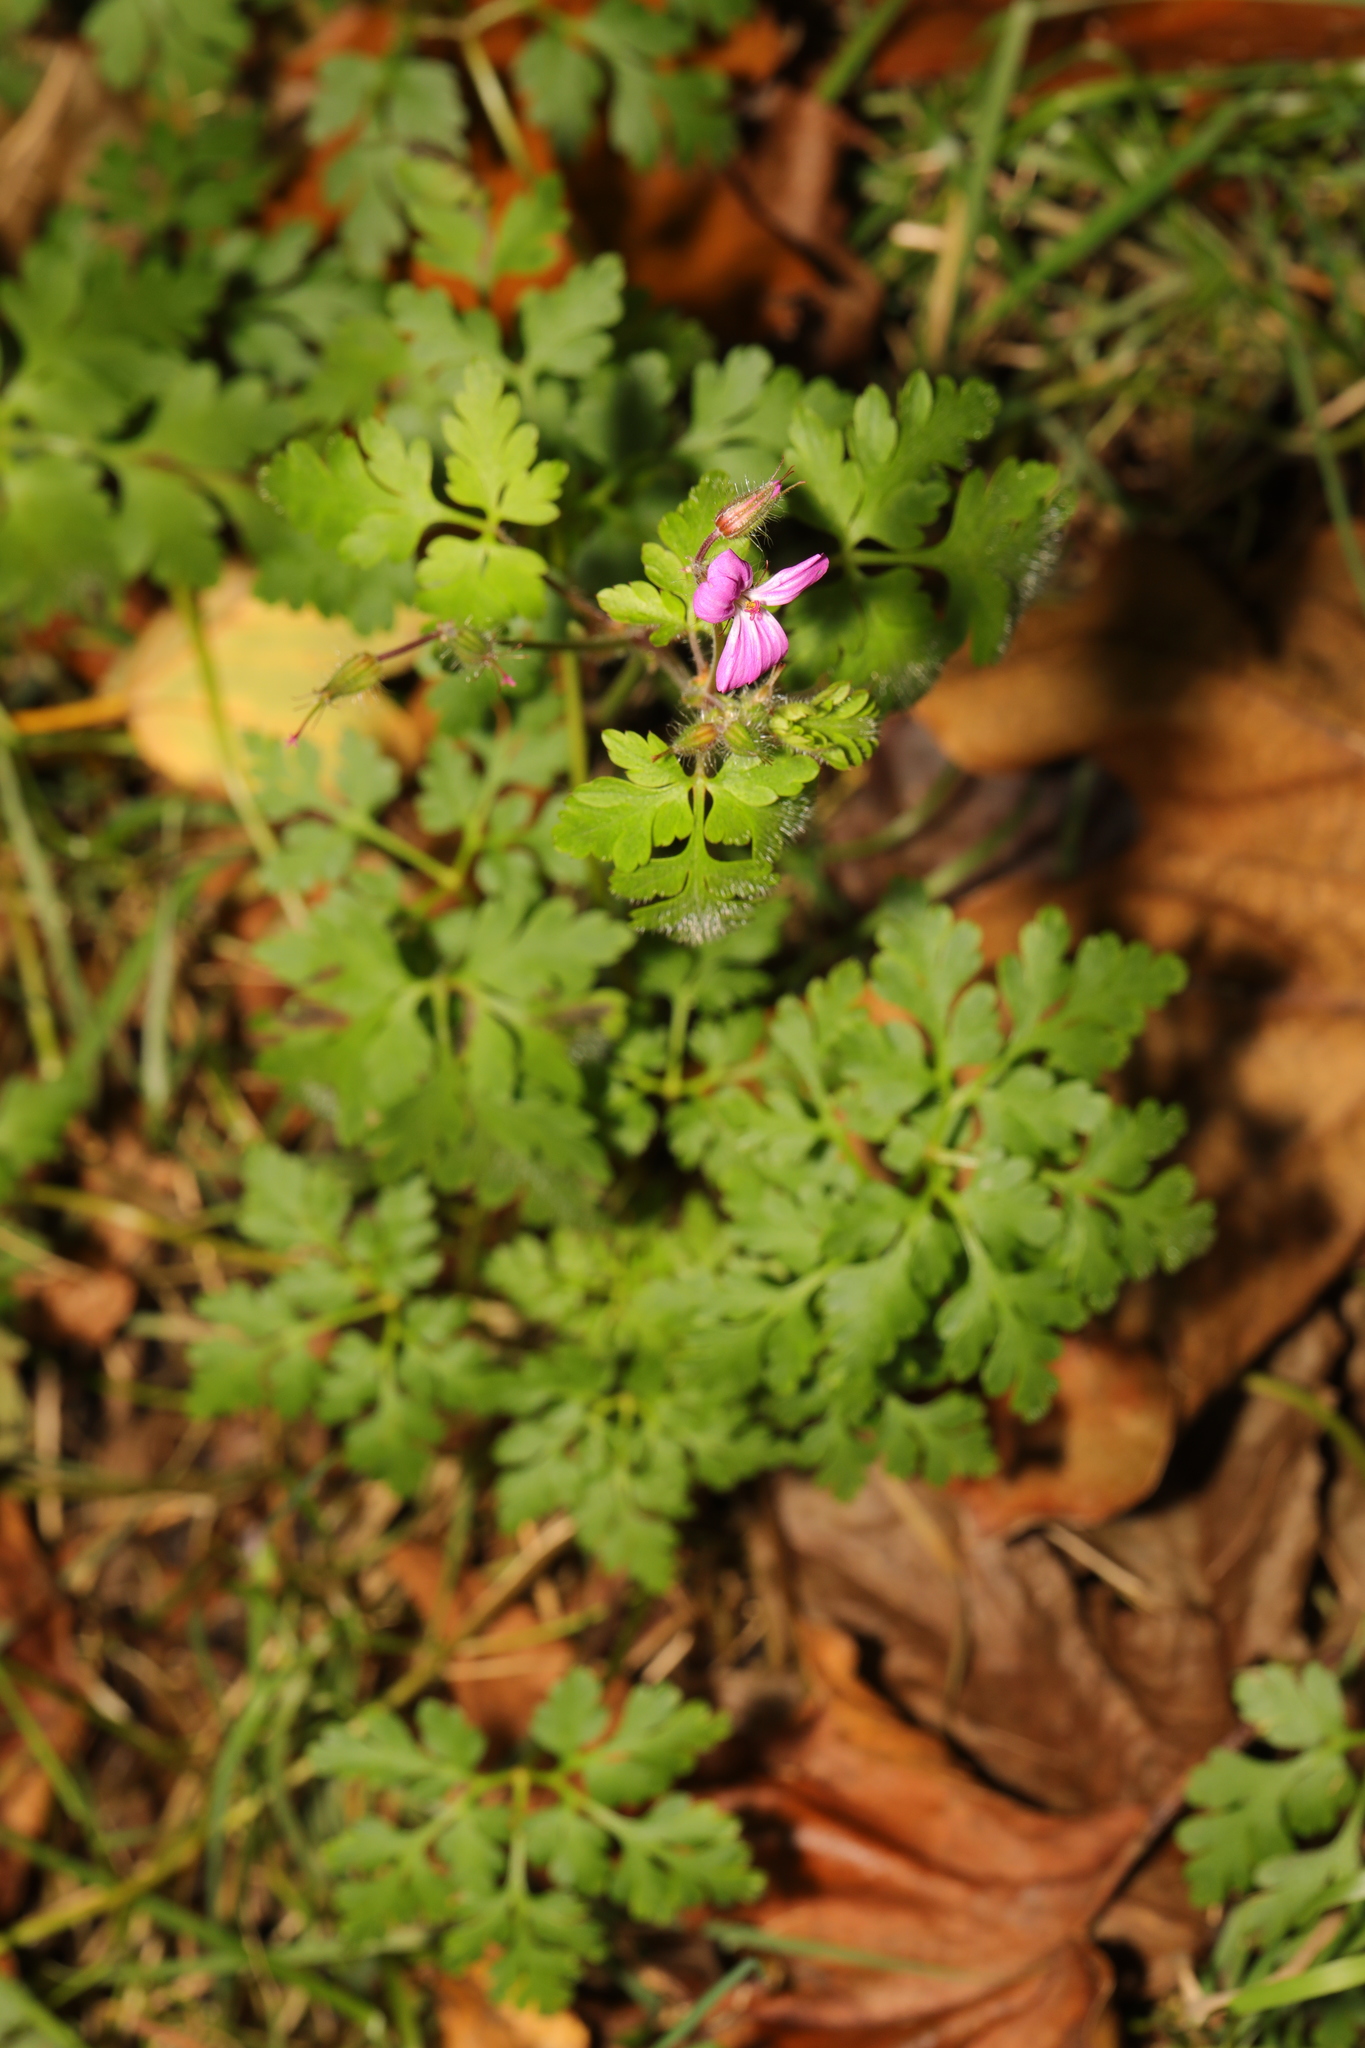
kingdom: Plantae
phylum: Tracheophyta
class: Magnoliopsida
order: Geraniales
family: Geraniaceae
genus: Geranium
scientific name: Geranium robertianum
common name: Herb-robert
